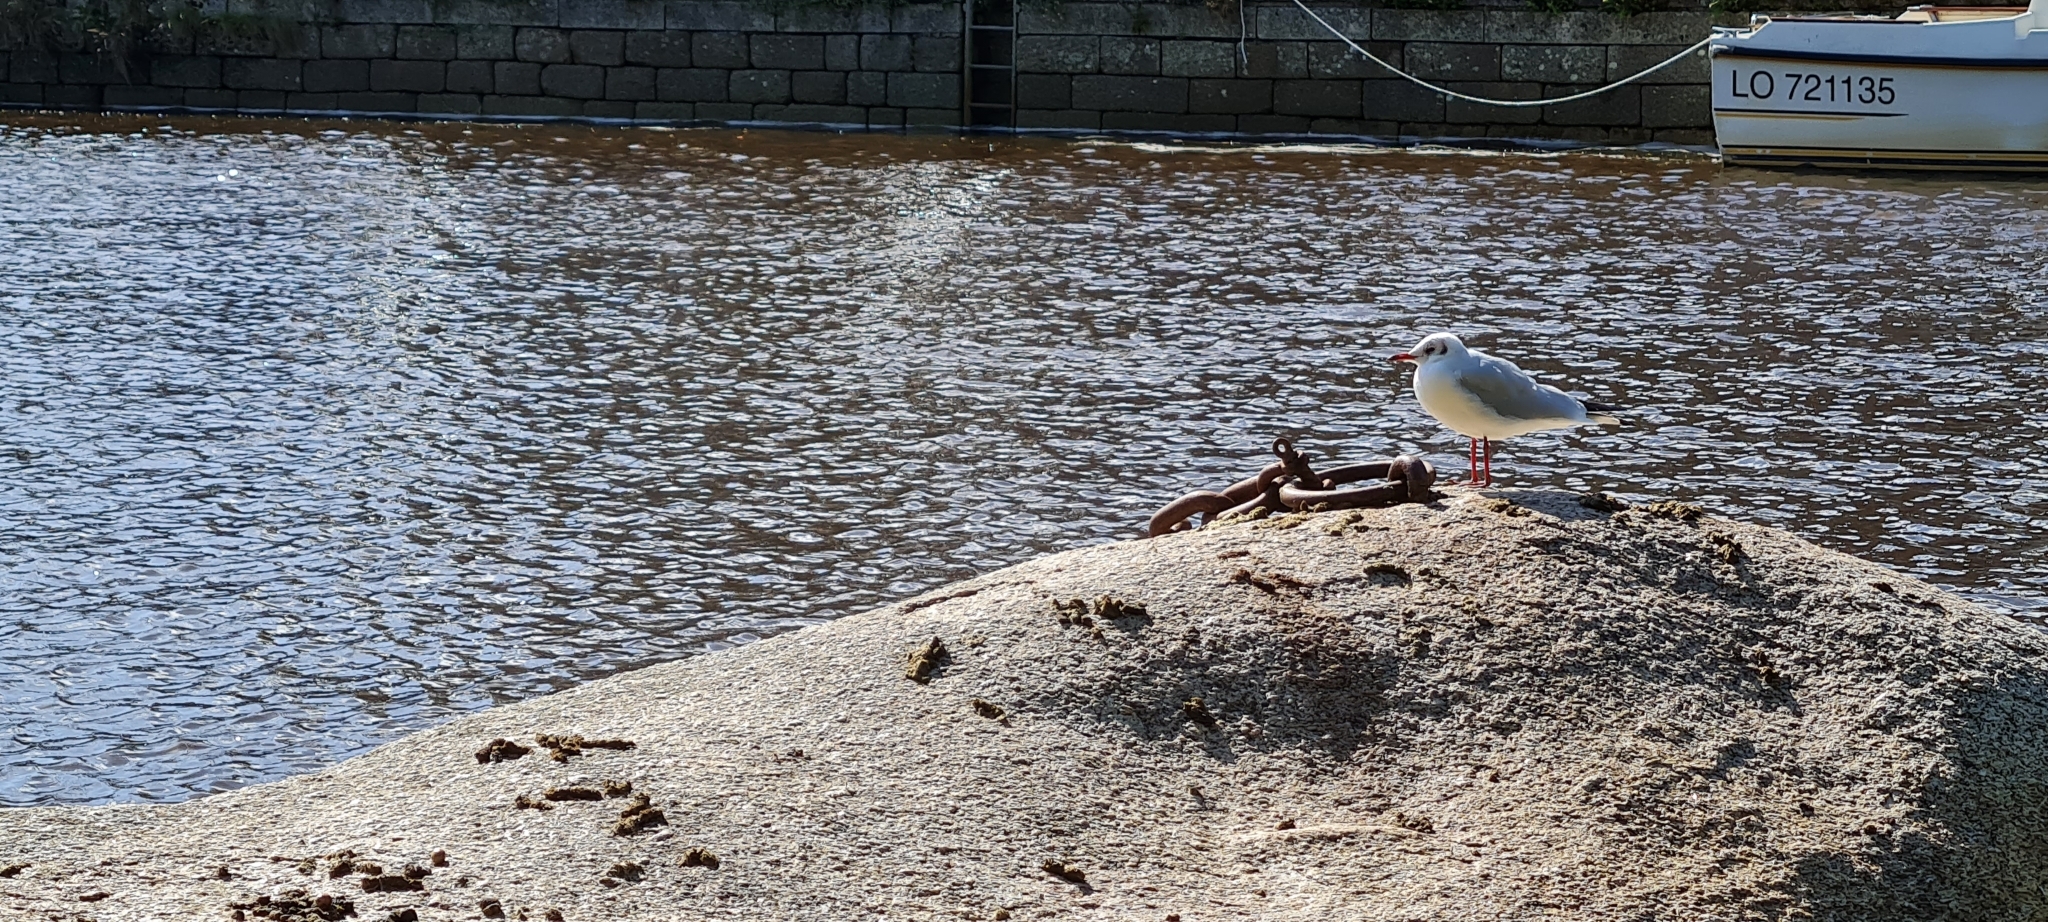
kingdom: Animalia
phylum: Chordata
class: Aves
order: Charadriiformes
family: Laridae
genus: Chroicocephalus
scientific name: Chroicocephalus ridibundus
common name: Black-headed gull
